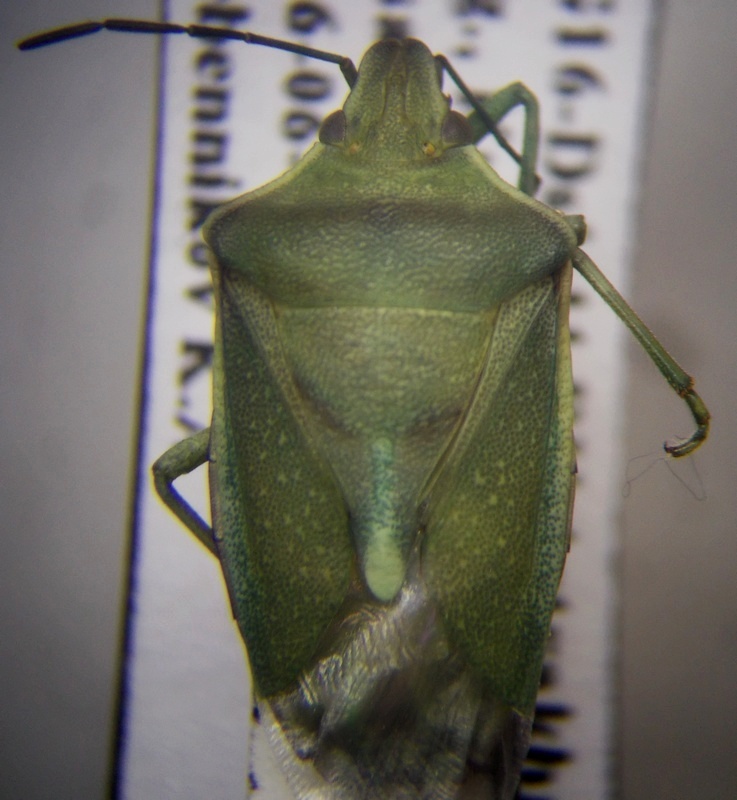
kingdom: Animalia
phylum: Arthropoda
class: Insecta
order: Hemiptera
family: Pentatomidae
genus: Brachynema
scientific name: Brachynema germarii
